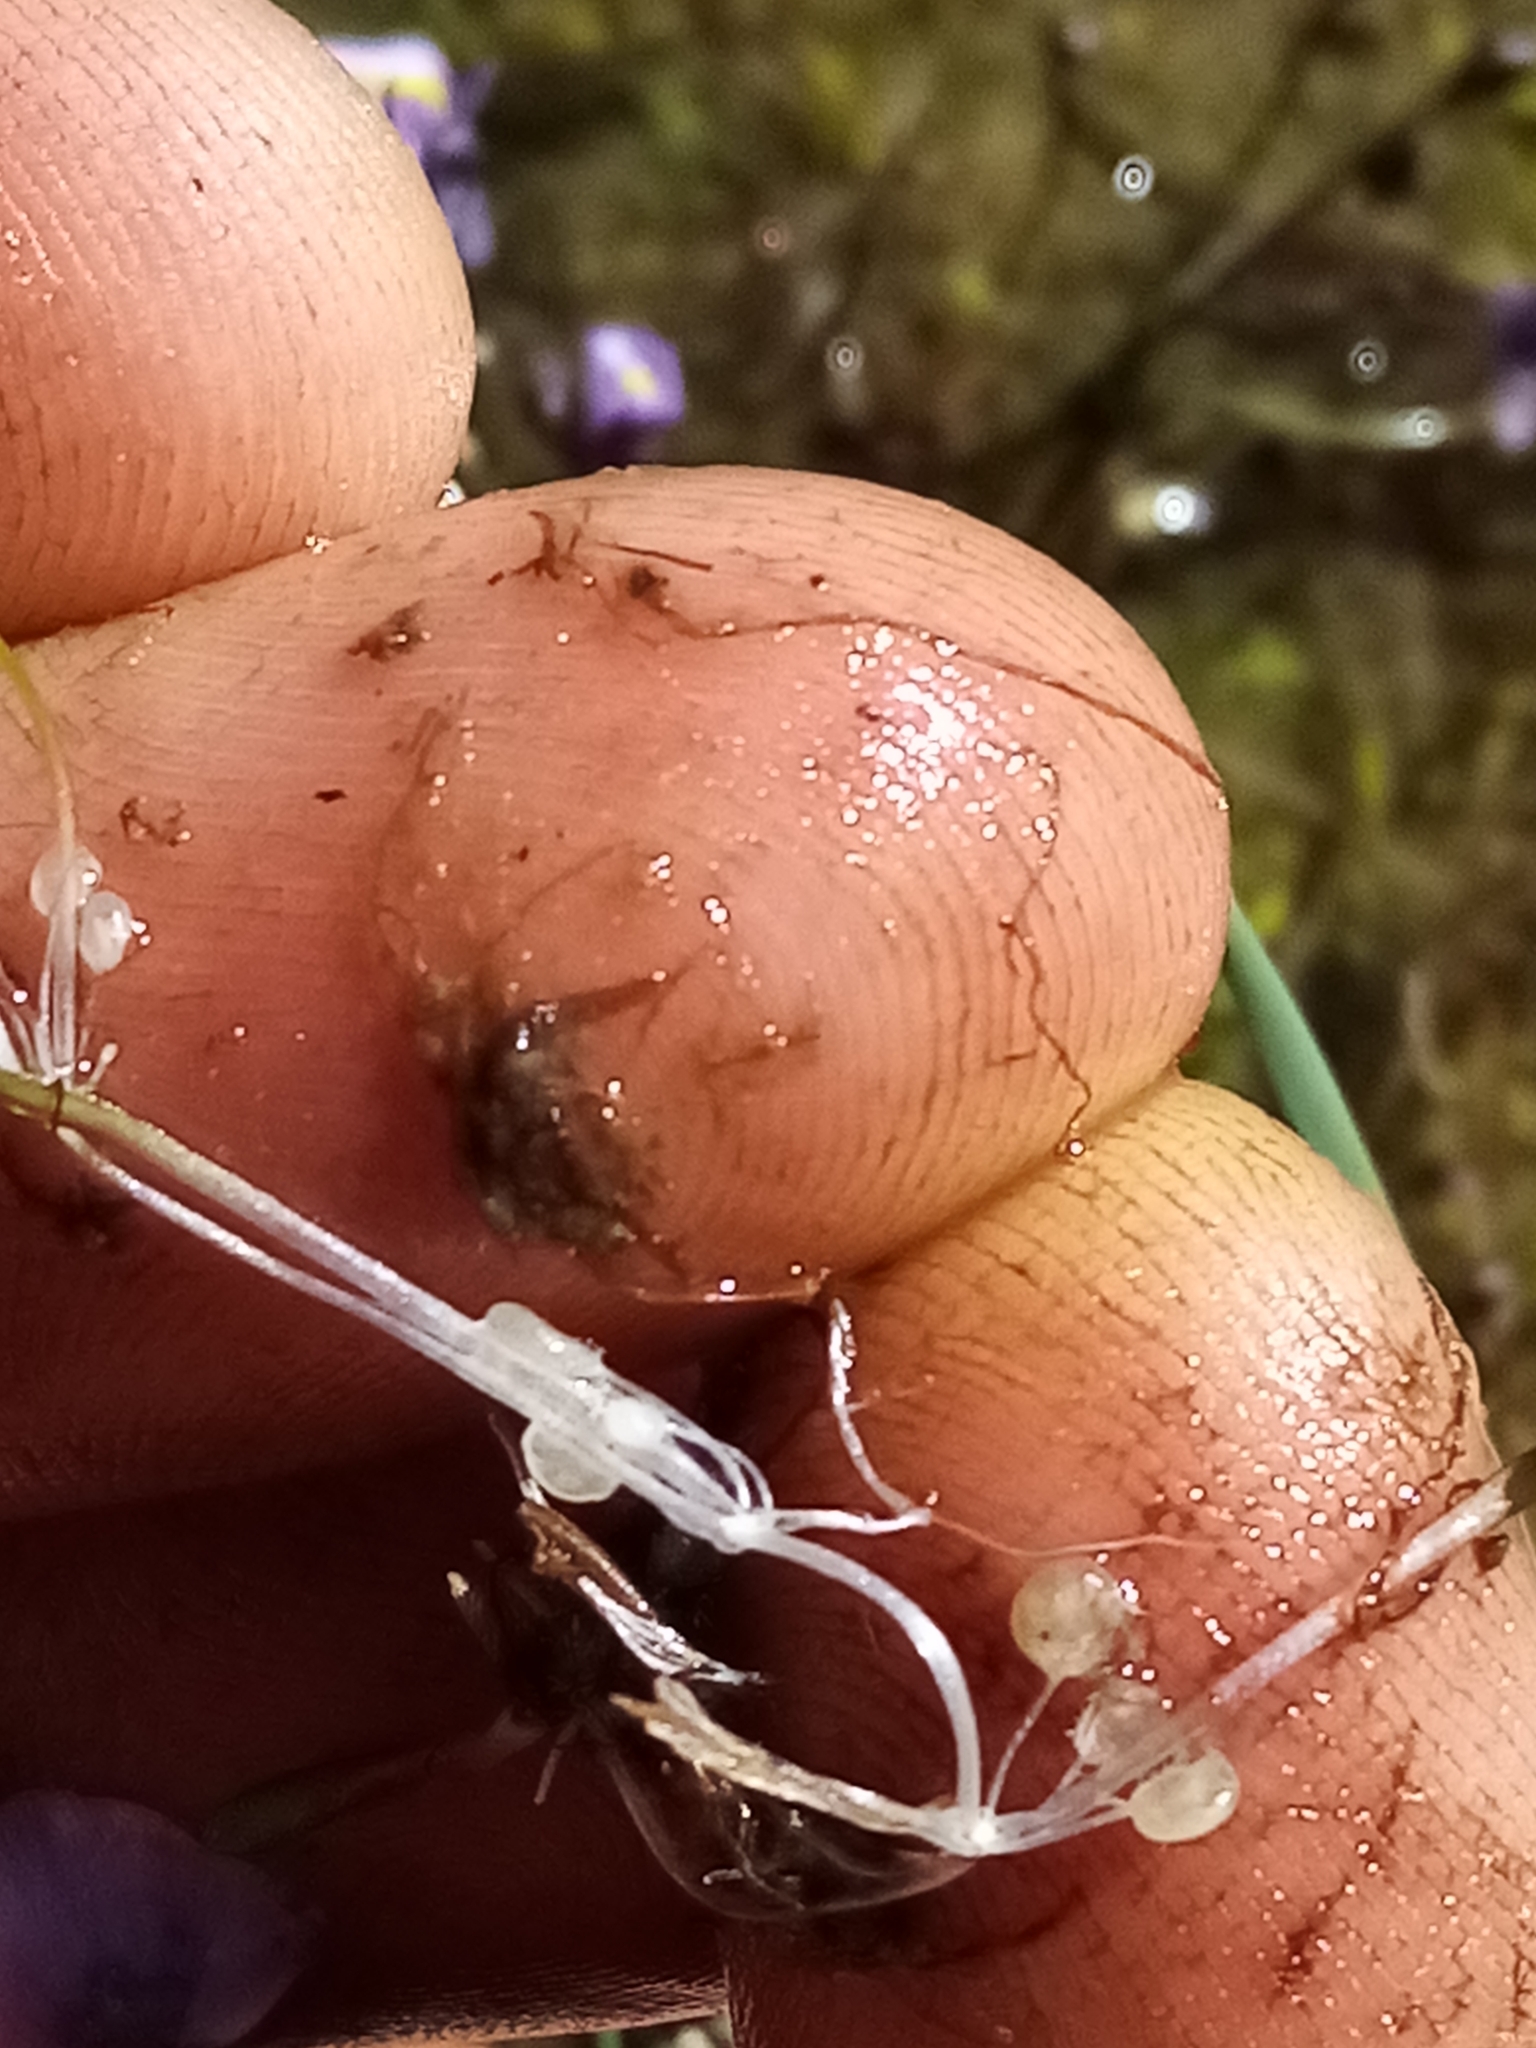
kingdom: Plantae
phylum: Tracheophyta
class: Magnoliopsida
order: Lamiales
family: Lentibulariaceae
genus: Utricularia
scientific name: Utricularia dichotoma
